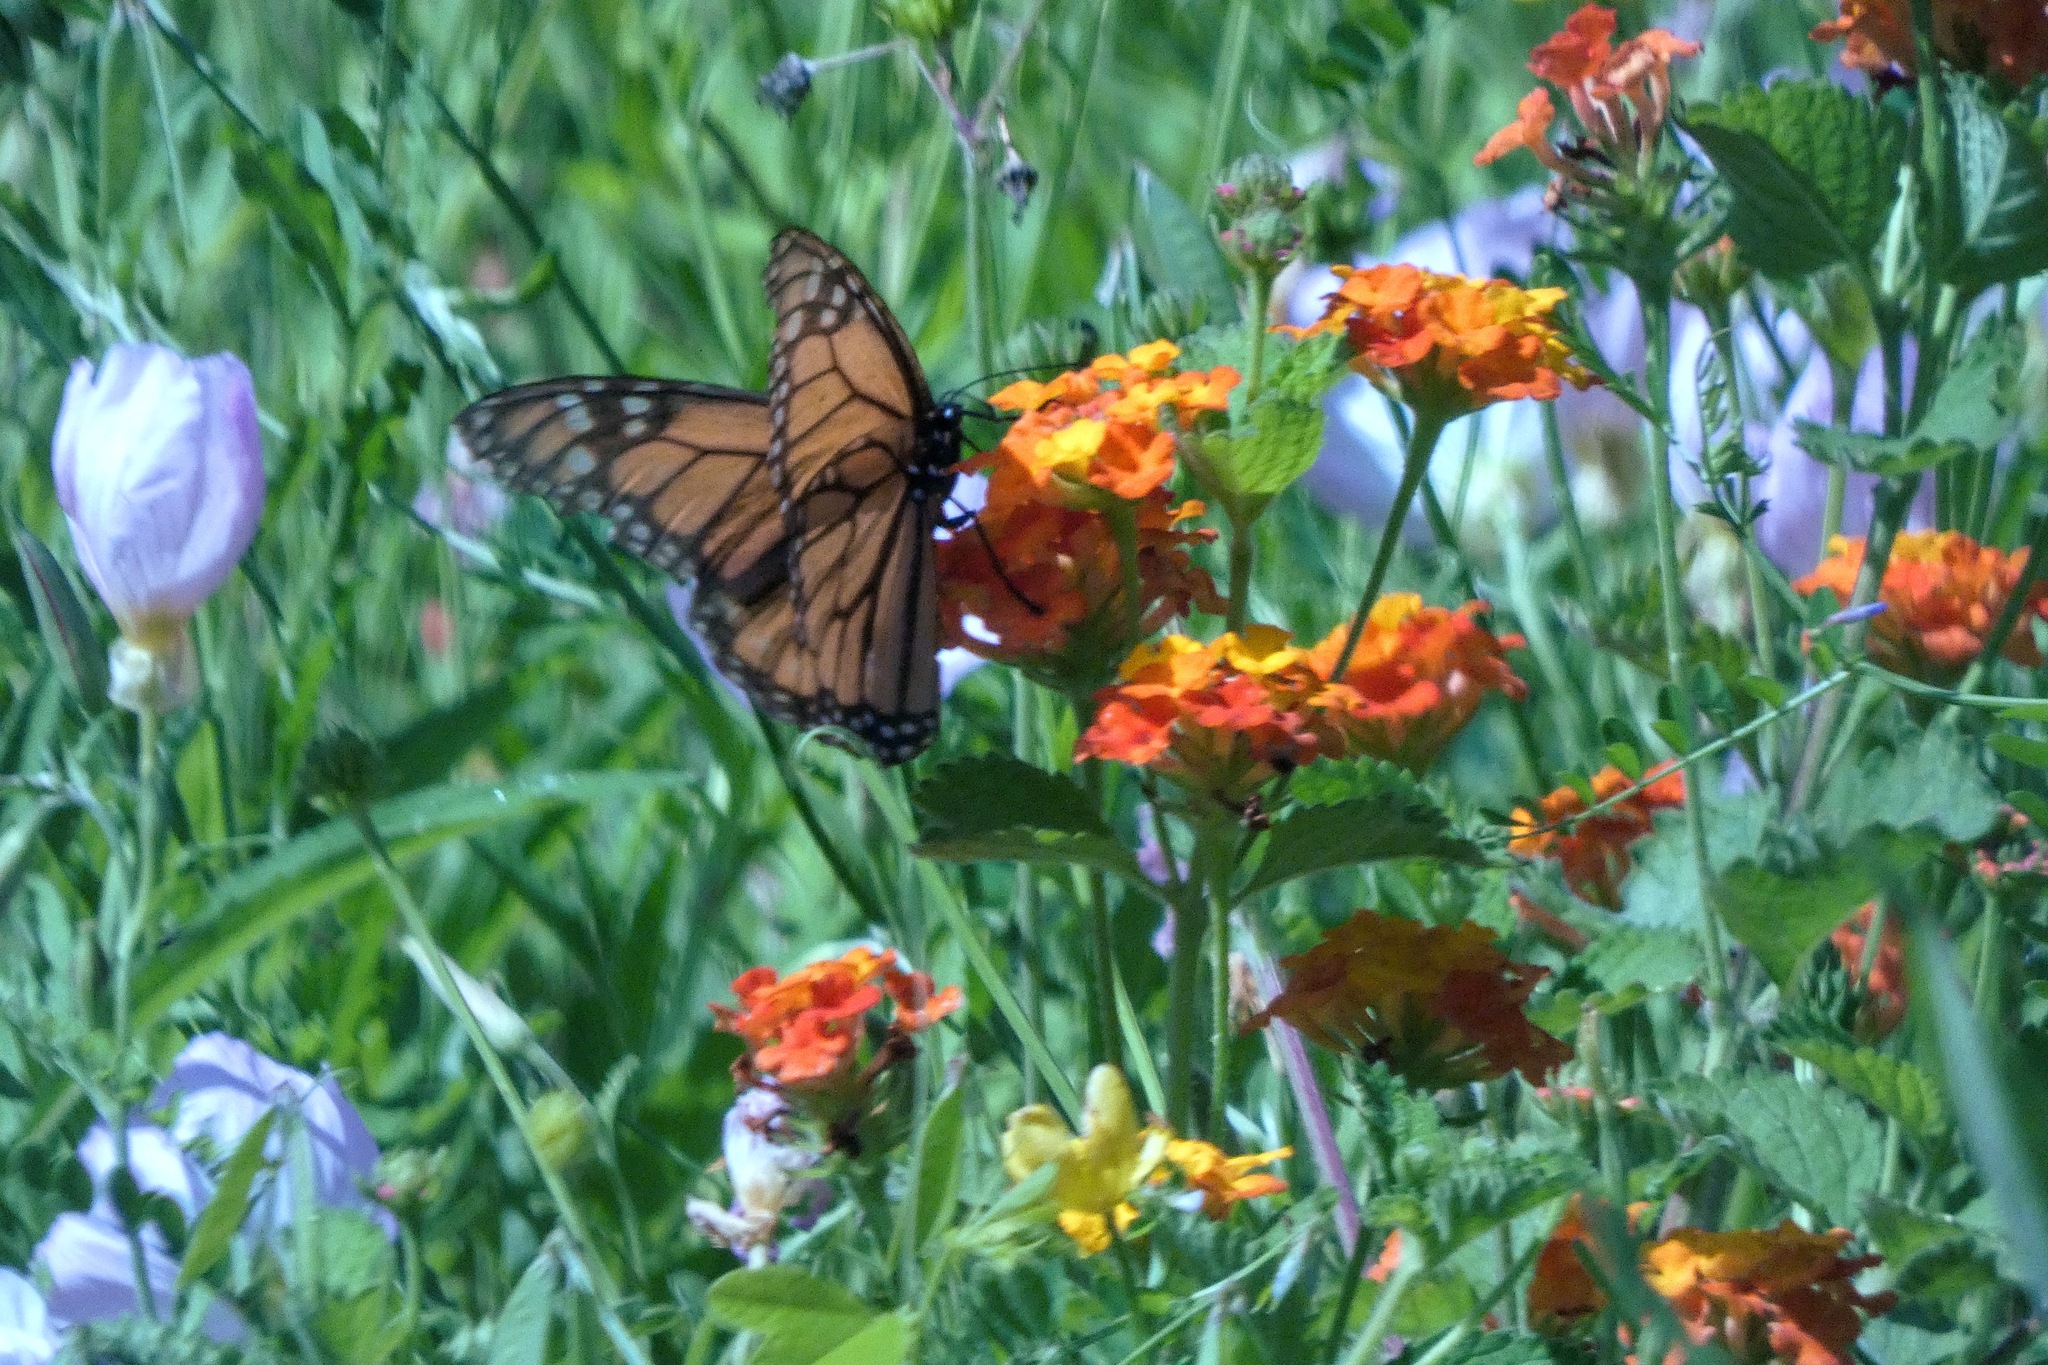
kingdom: Animalia
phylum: Arthropoda
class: Insecta
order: Lepidoptera
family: Nymphalidae
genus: Danaus
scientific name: Danaus plexippus
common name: Monarch
